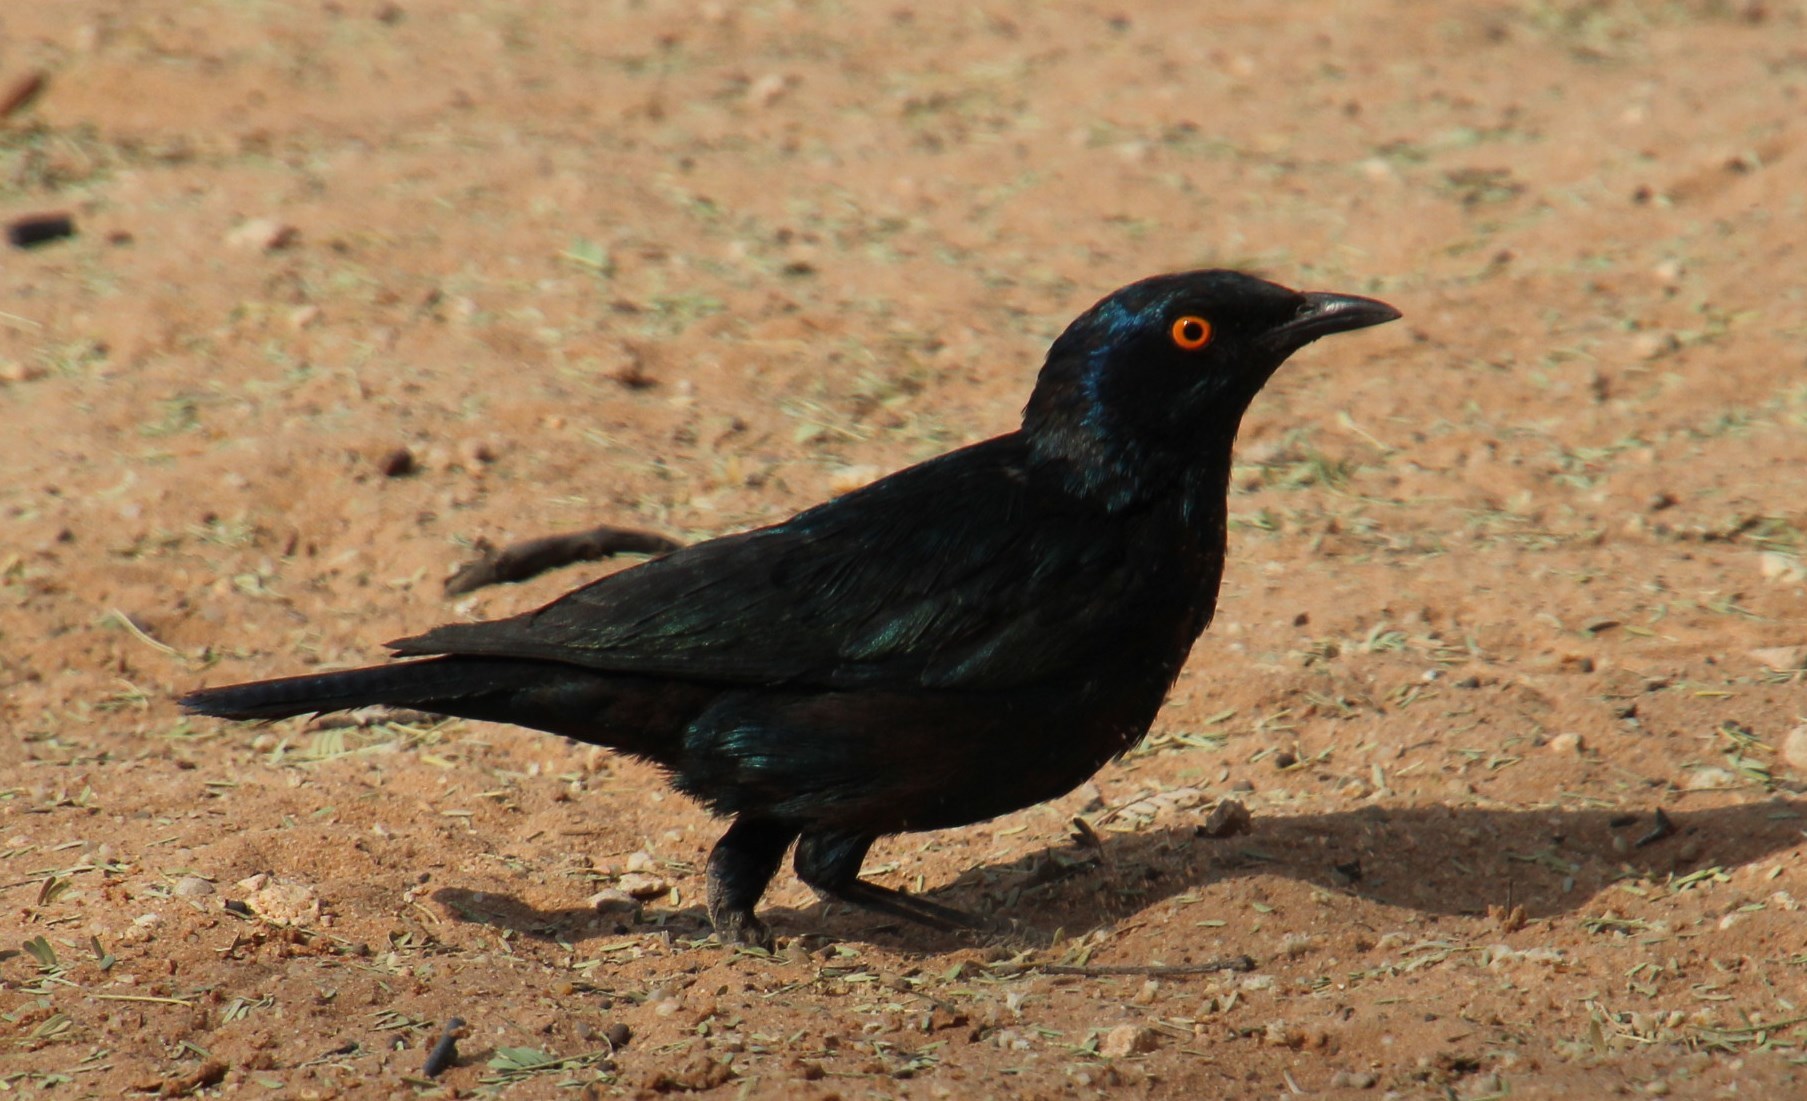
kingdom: Animalia
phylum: Chordata
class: Aves
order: Passeriformes
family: Sturnidae
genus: Lamprotornis
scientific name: Lamprotornis nitens
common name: Cape starling
